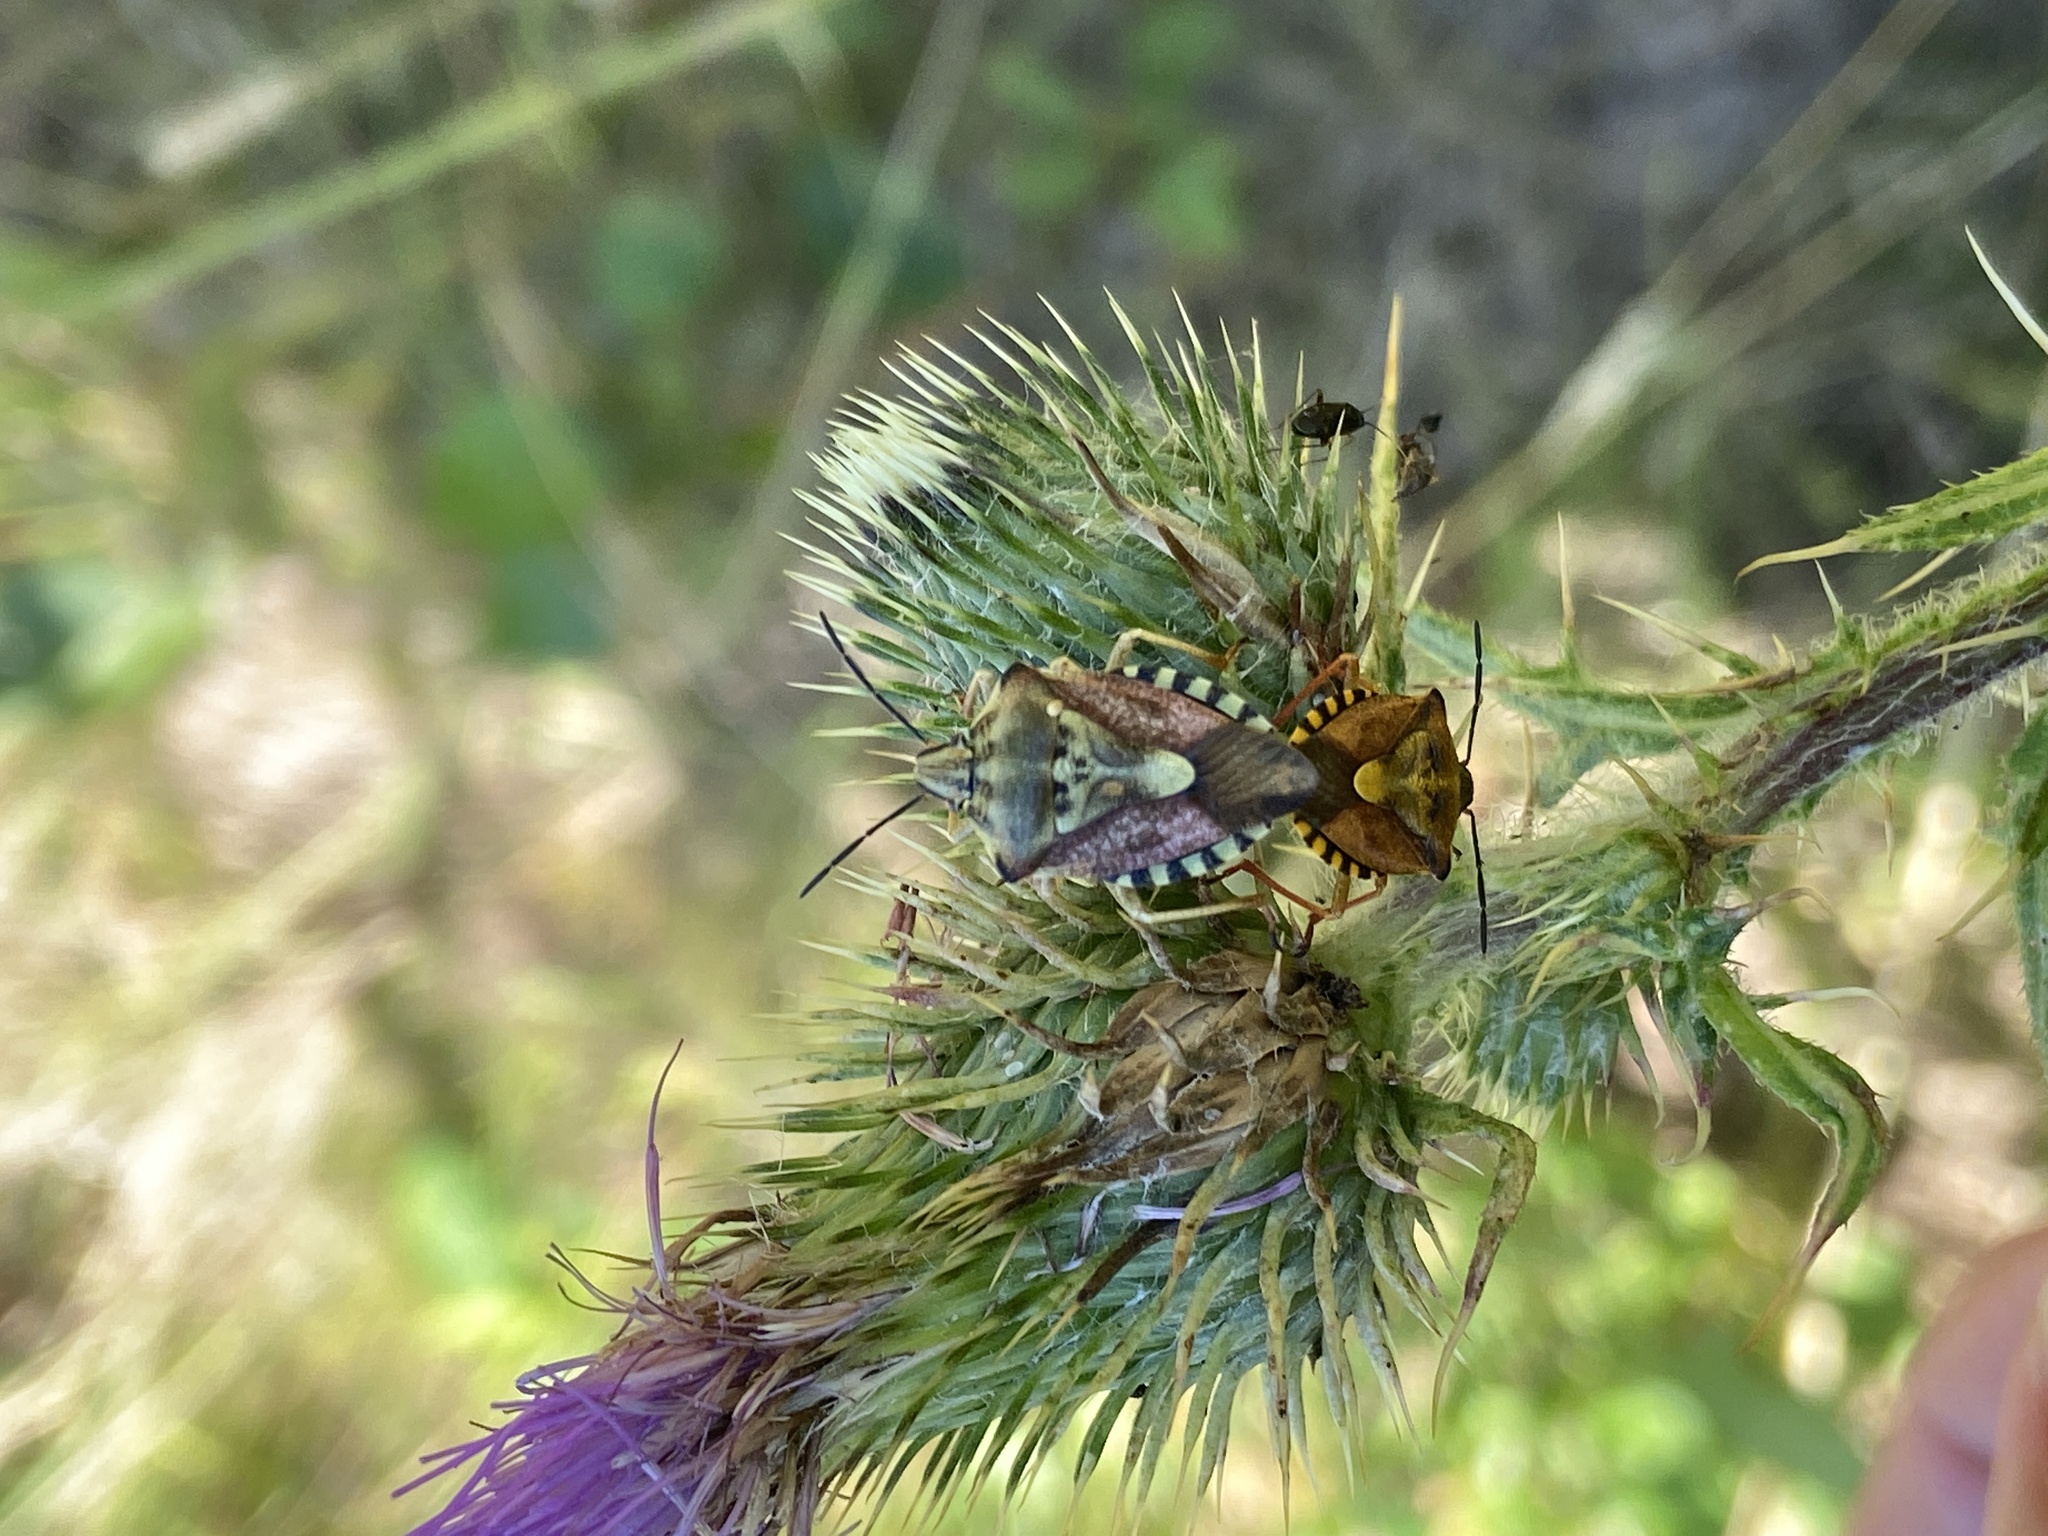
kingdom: Animalia
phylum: Arthropoda
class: Insecta
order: Hemiptera
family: Pentatomidae
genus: Carpocoris
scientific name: Carpocoris purpureipennis
